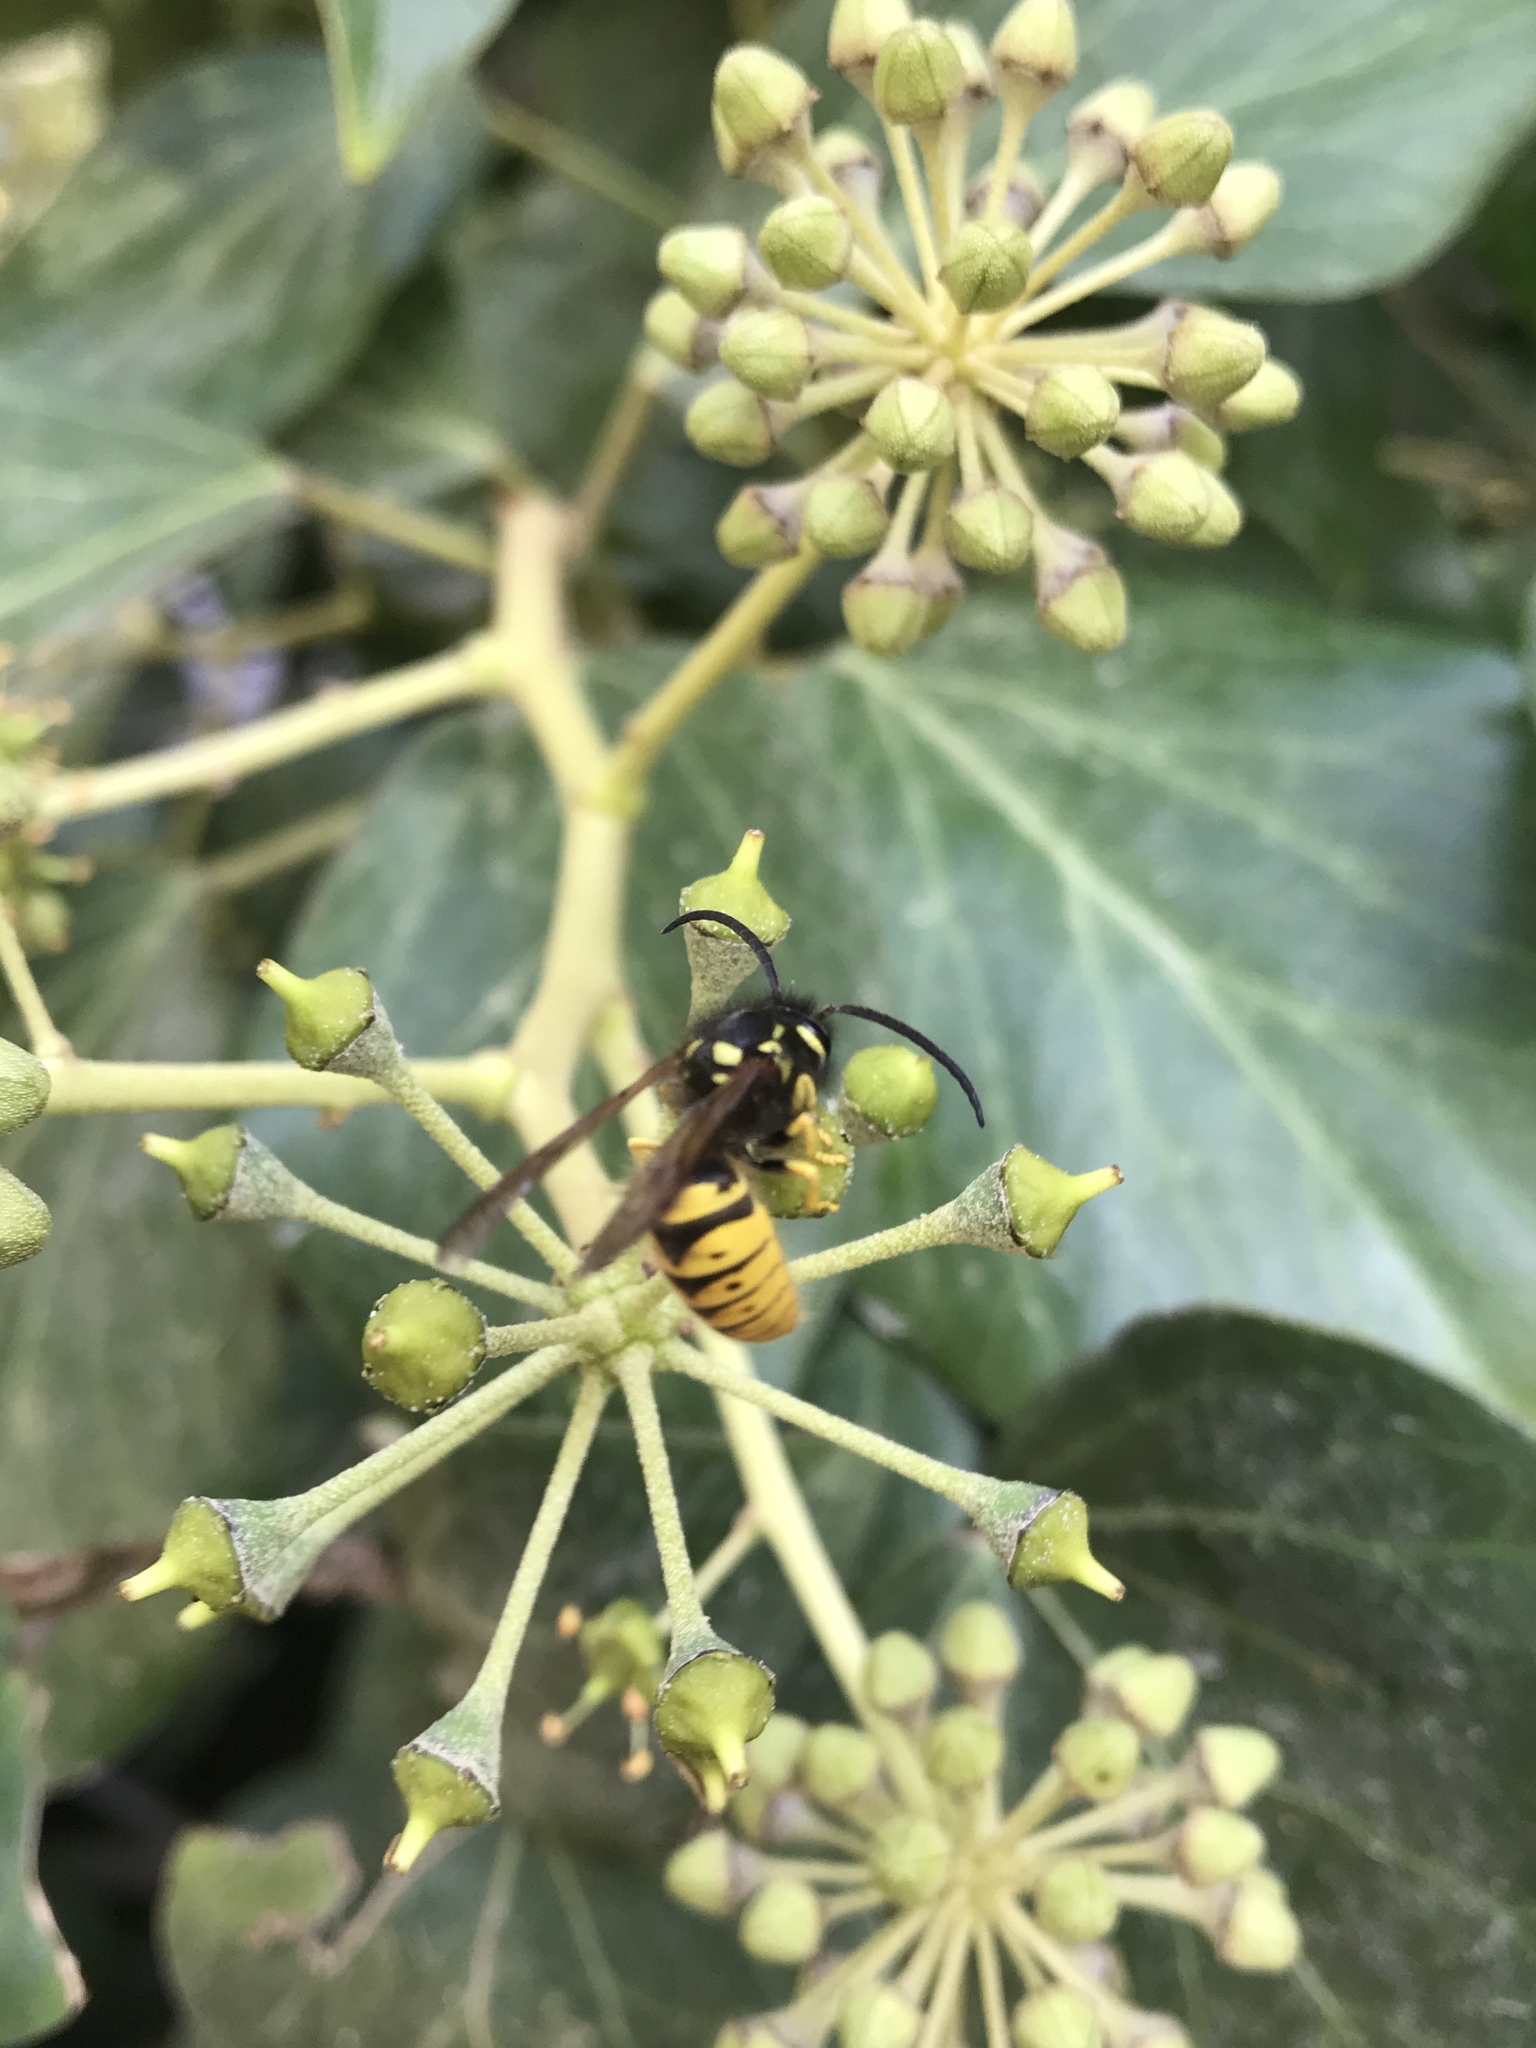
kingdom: Animalia
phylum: Arthropoda
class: Insecta
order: Hymenoptera
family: Vespidae
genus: Vespula
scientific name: Vespula germanica
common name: German wasp
